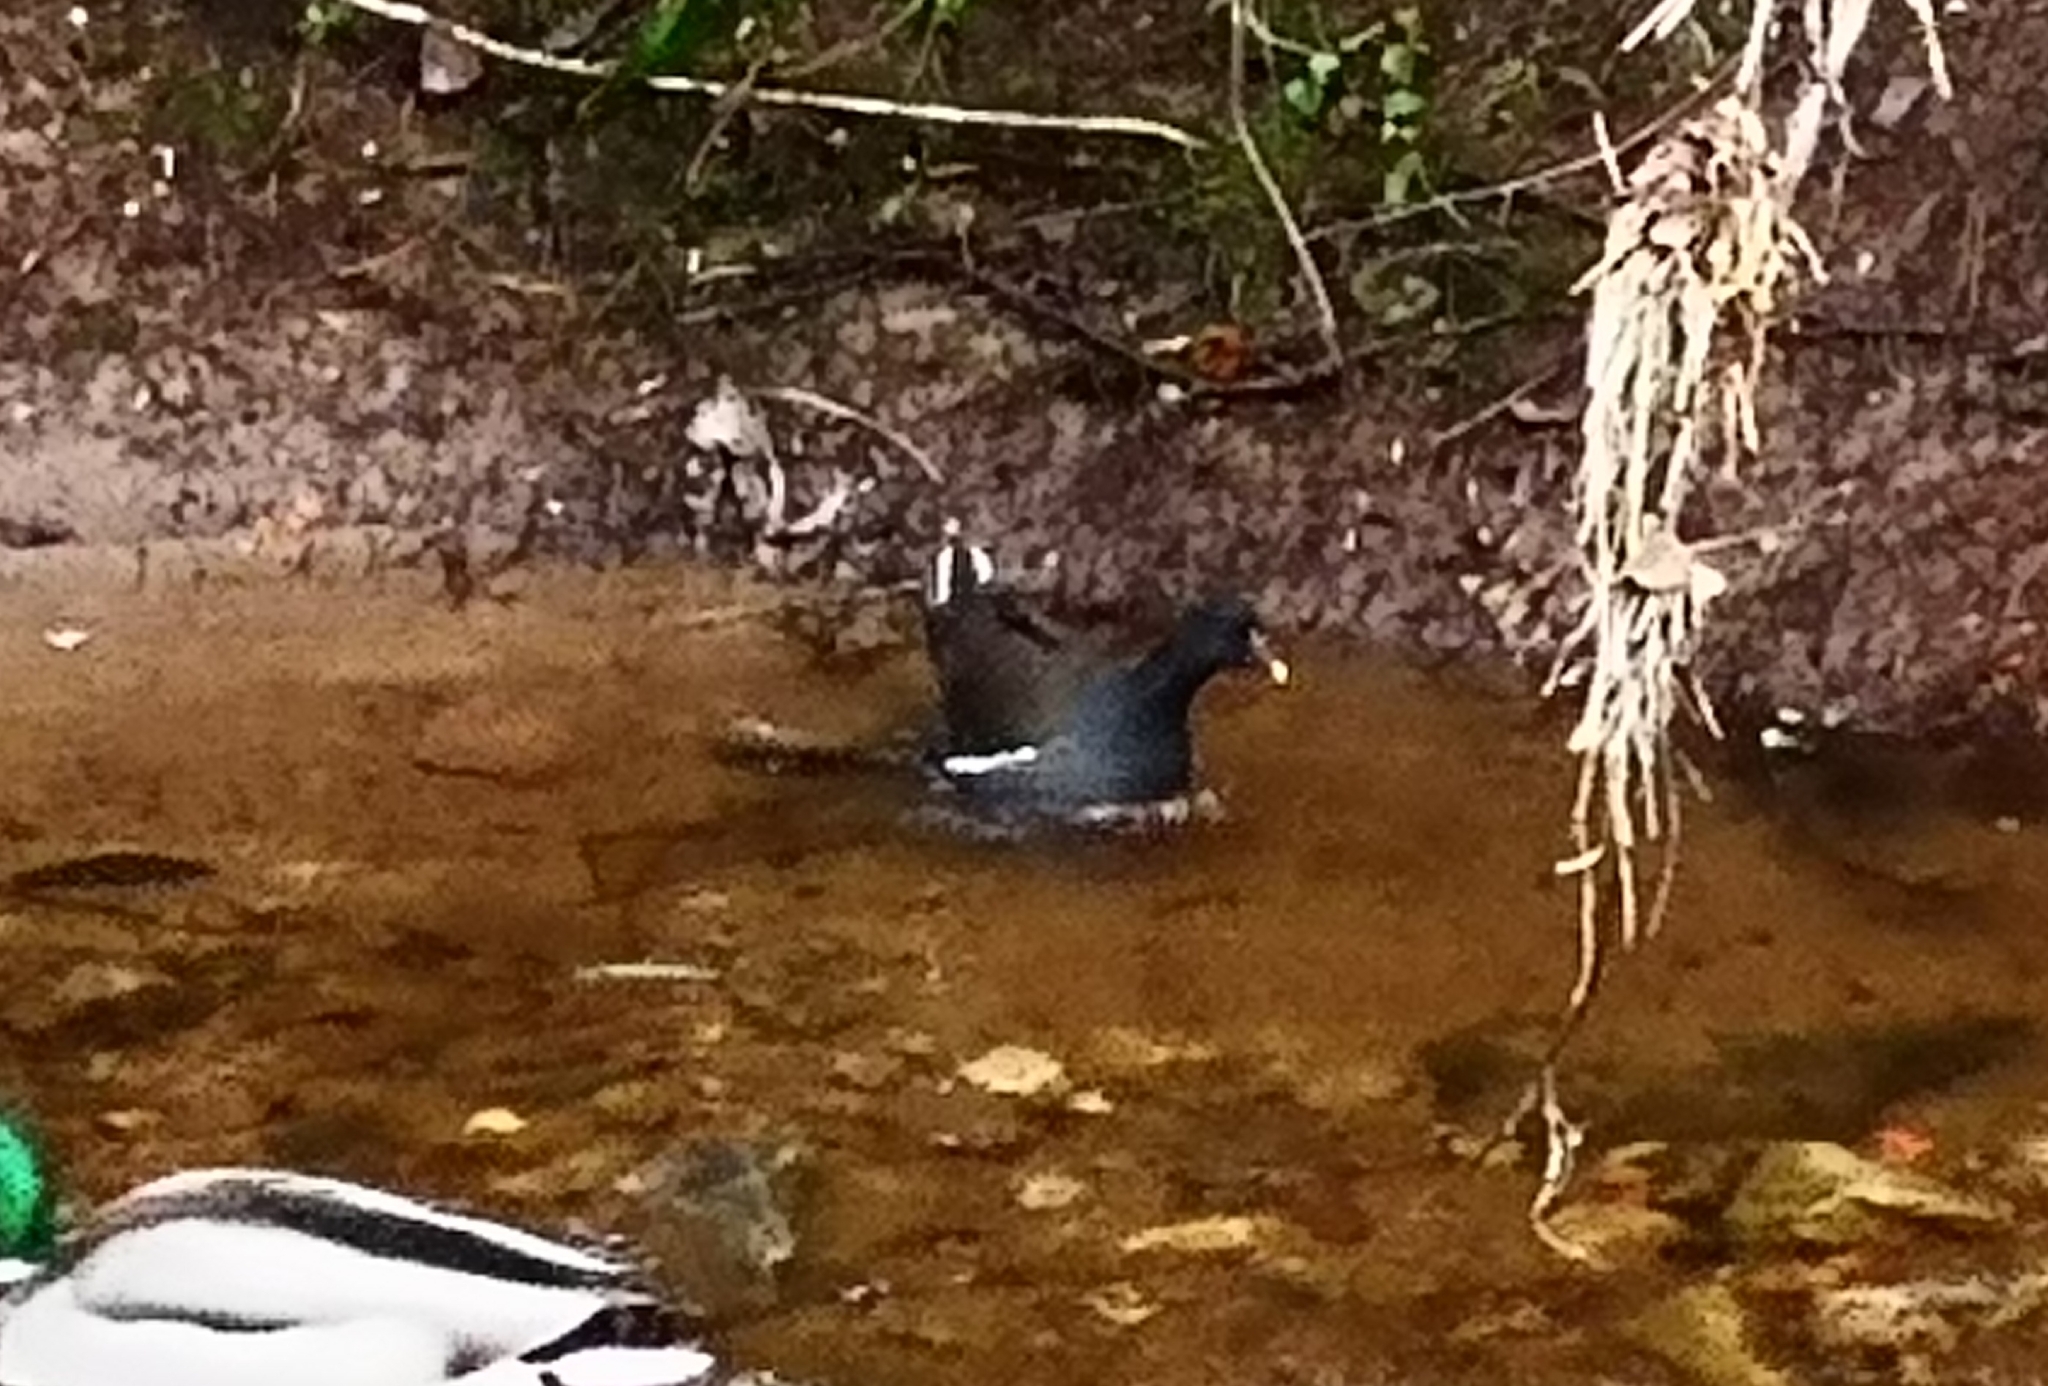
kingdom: Animalia
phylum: Chordata
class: Aves
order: Gruiformes
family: Rallidae
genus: Gallinula
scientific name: Gallinula chloropus
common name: Common moorhen
